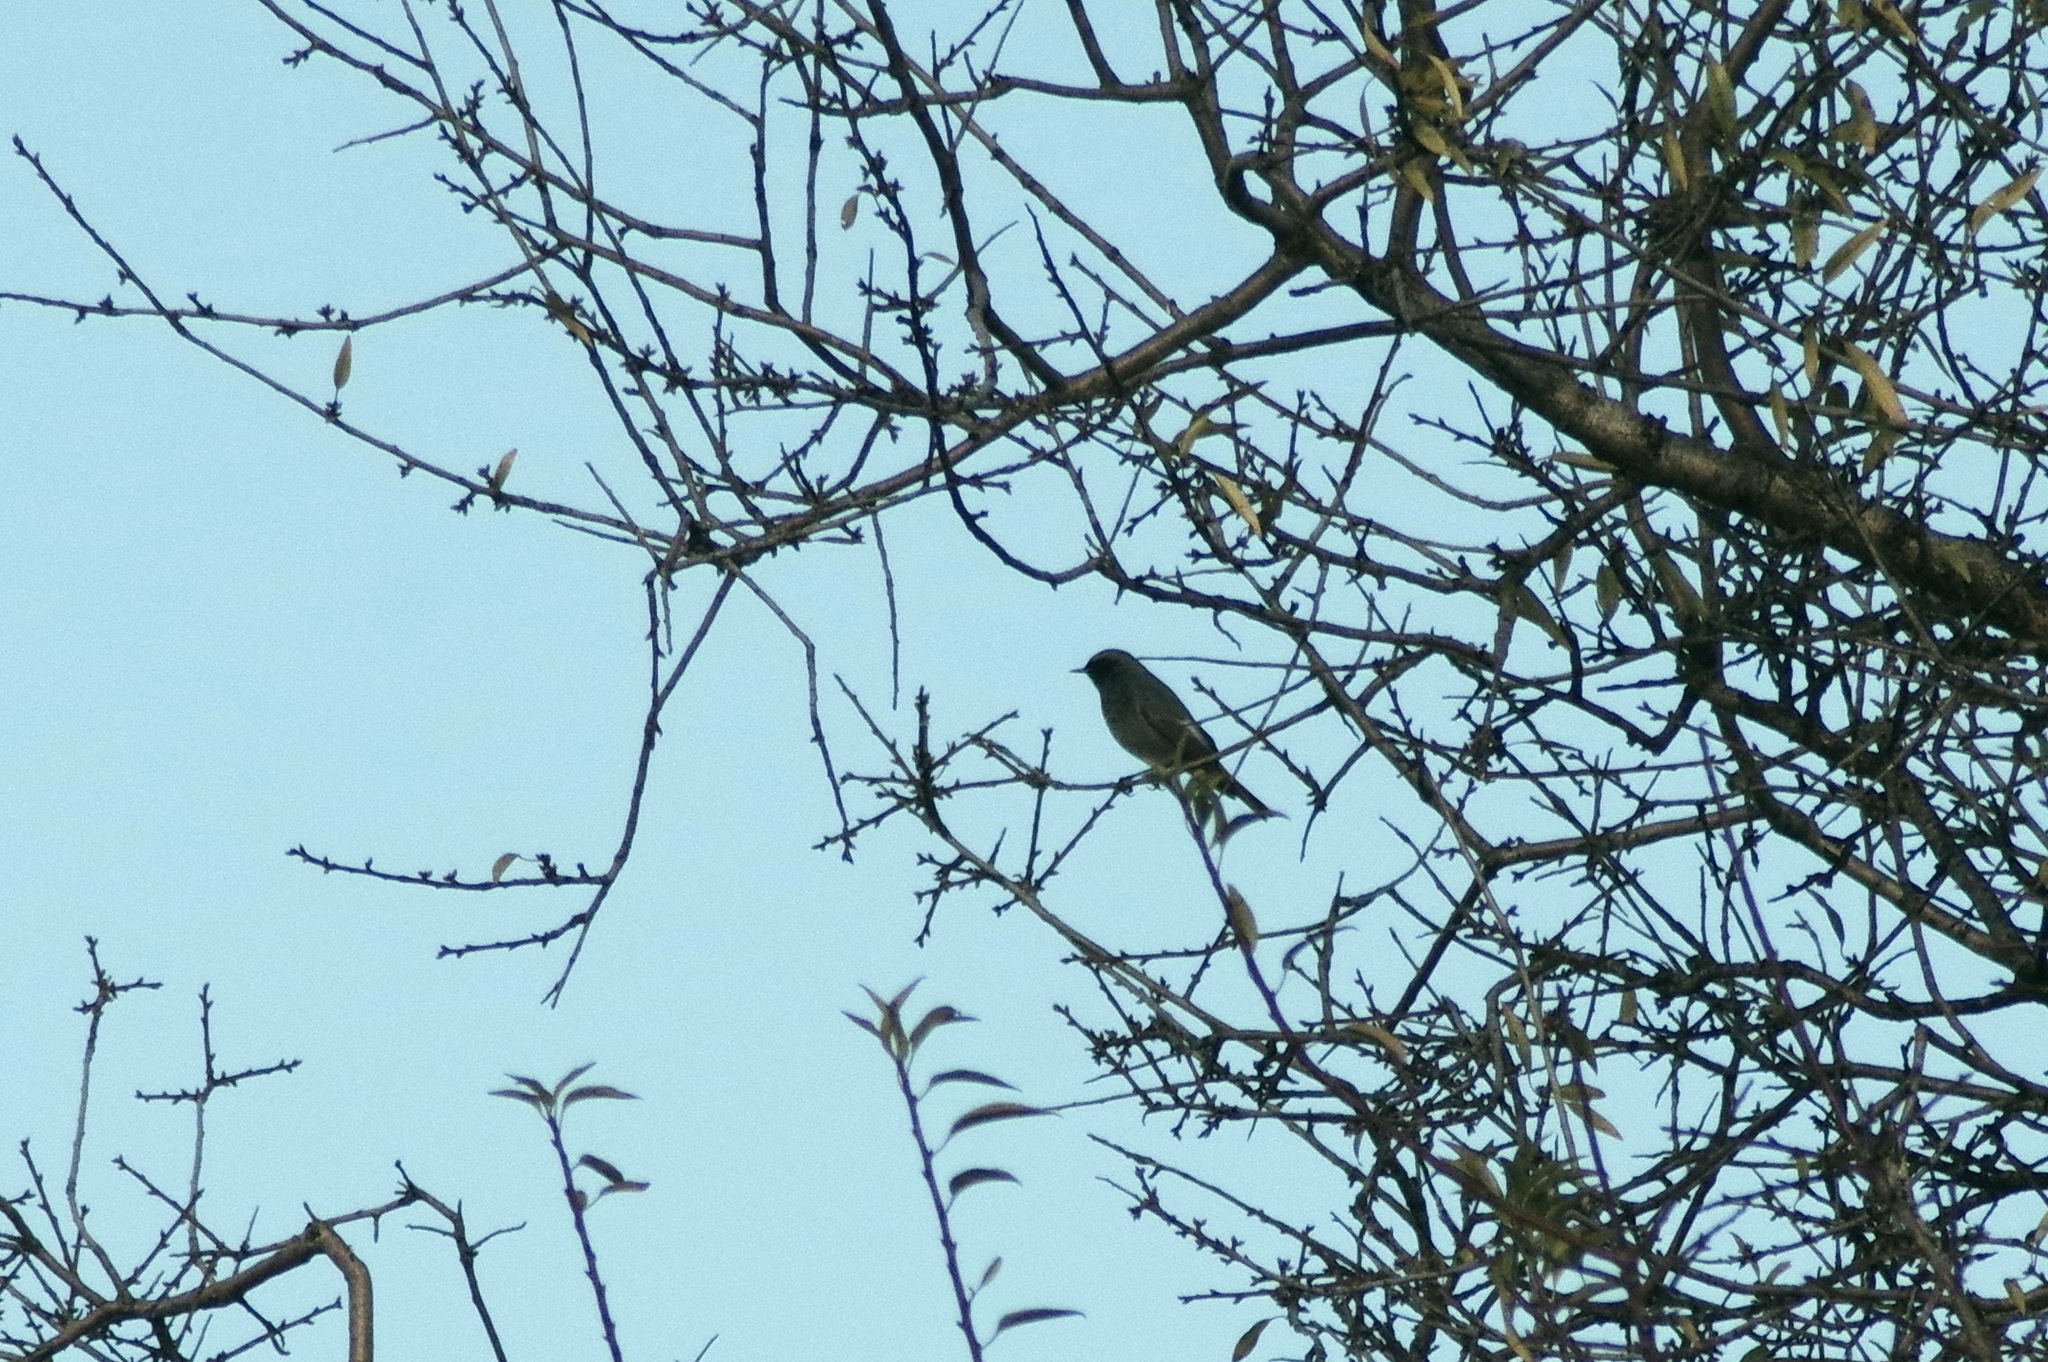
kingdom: Animalia
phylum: Chordata
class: Aves
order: Passeriformes
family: Muscicapidae
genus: Phoenicurus
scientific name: Phoenicurus ochruros
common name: Black redstart
